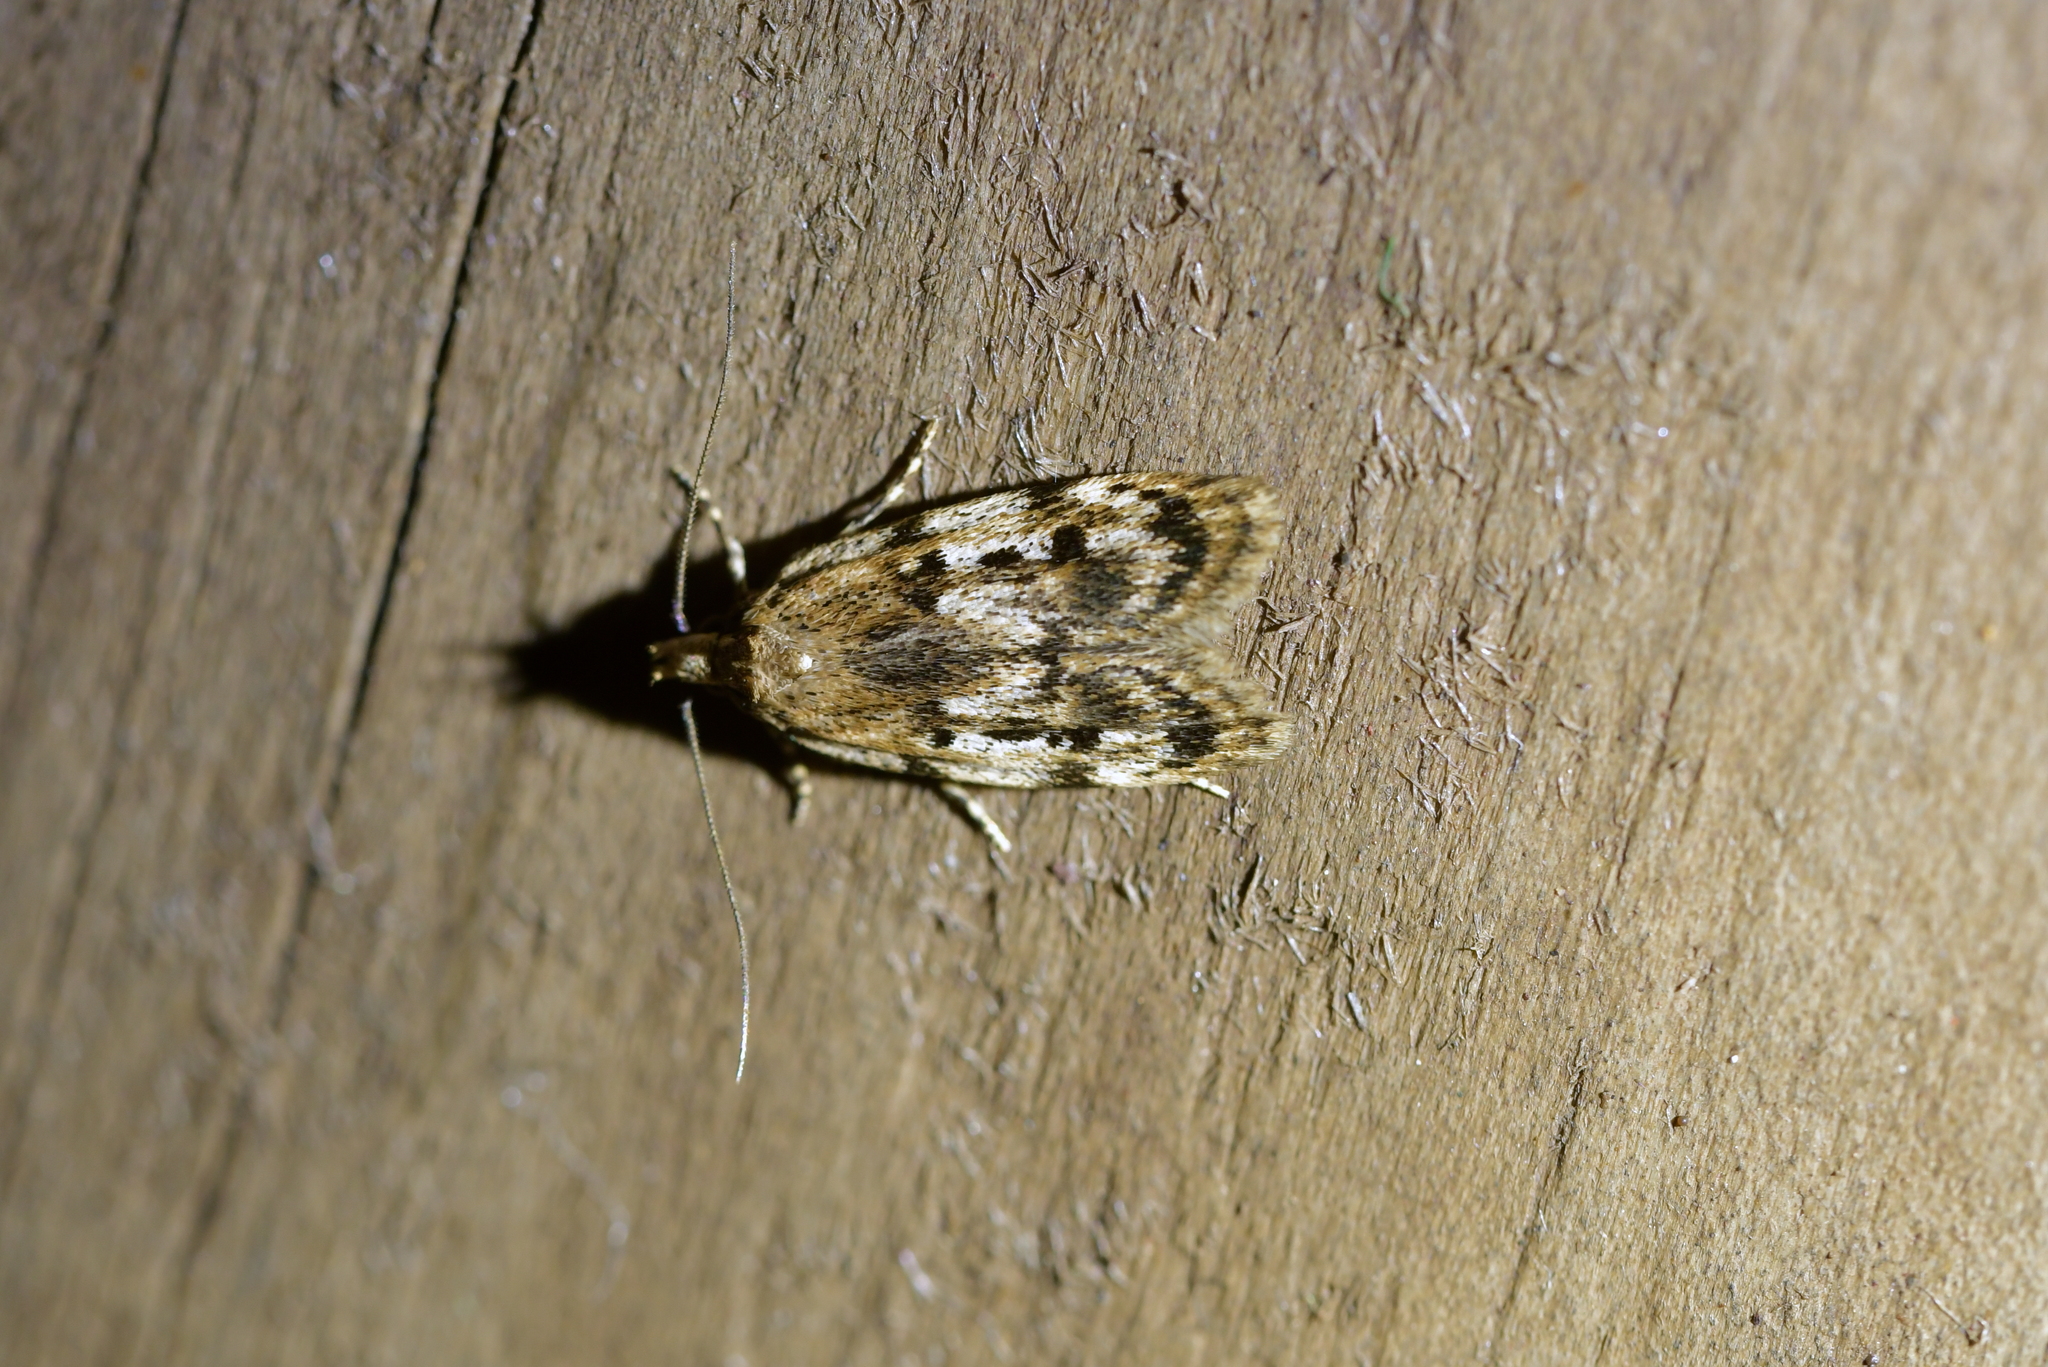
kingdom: Animalia
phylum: Arthropoda
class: Insecta
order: Lepidoptera
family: Oecophoridae
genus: Barea
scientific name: Barea exarcha
